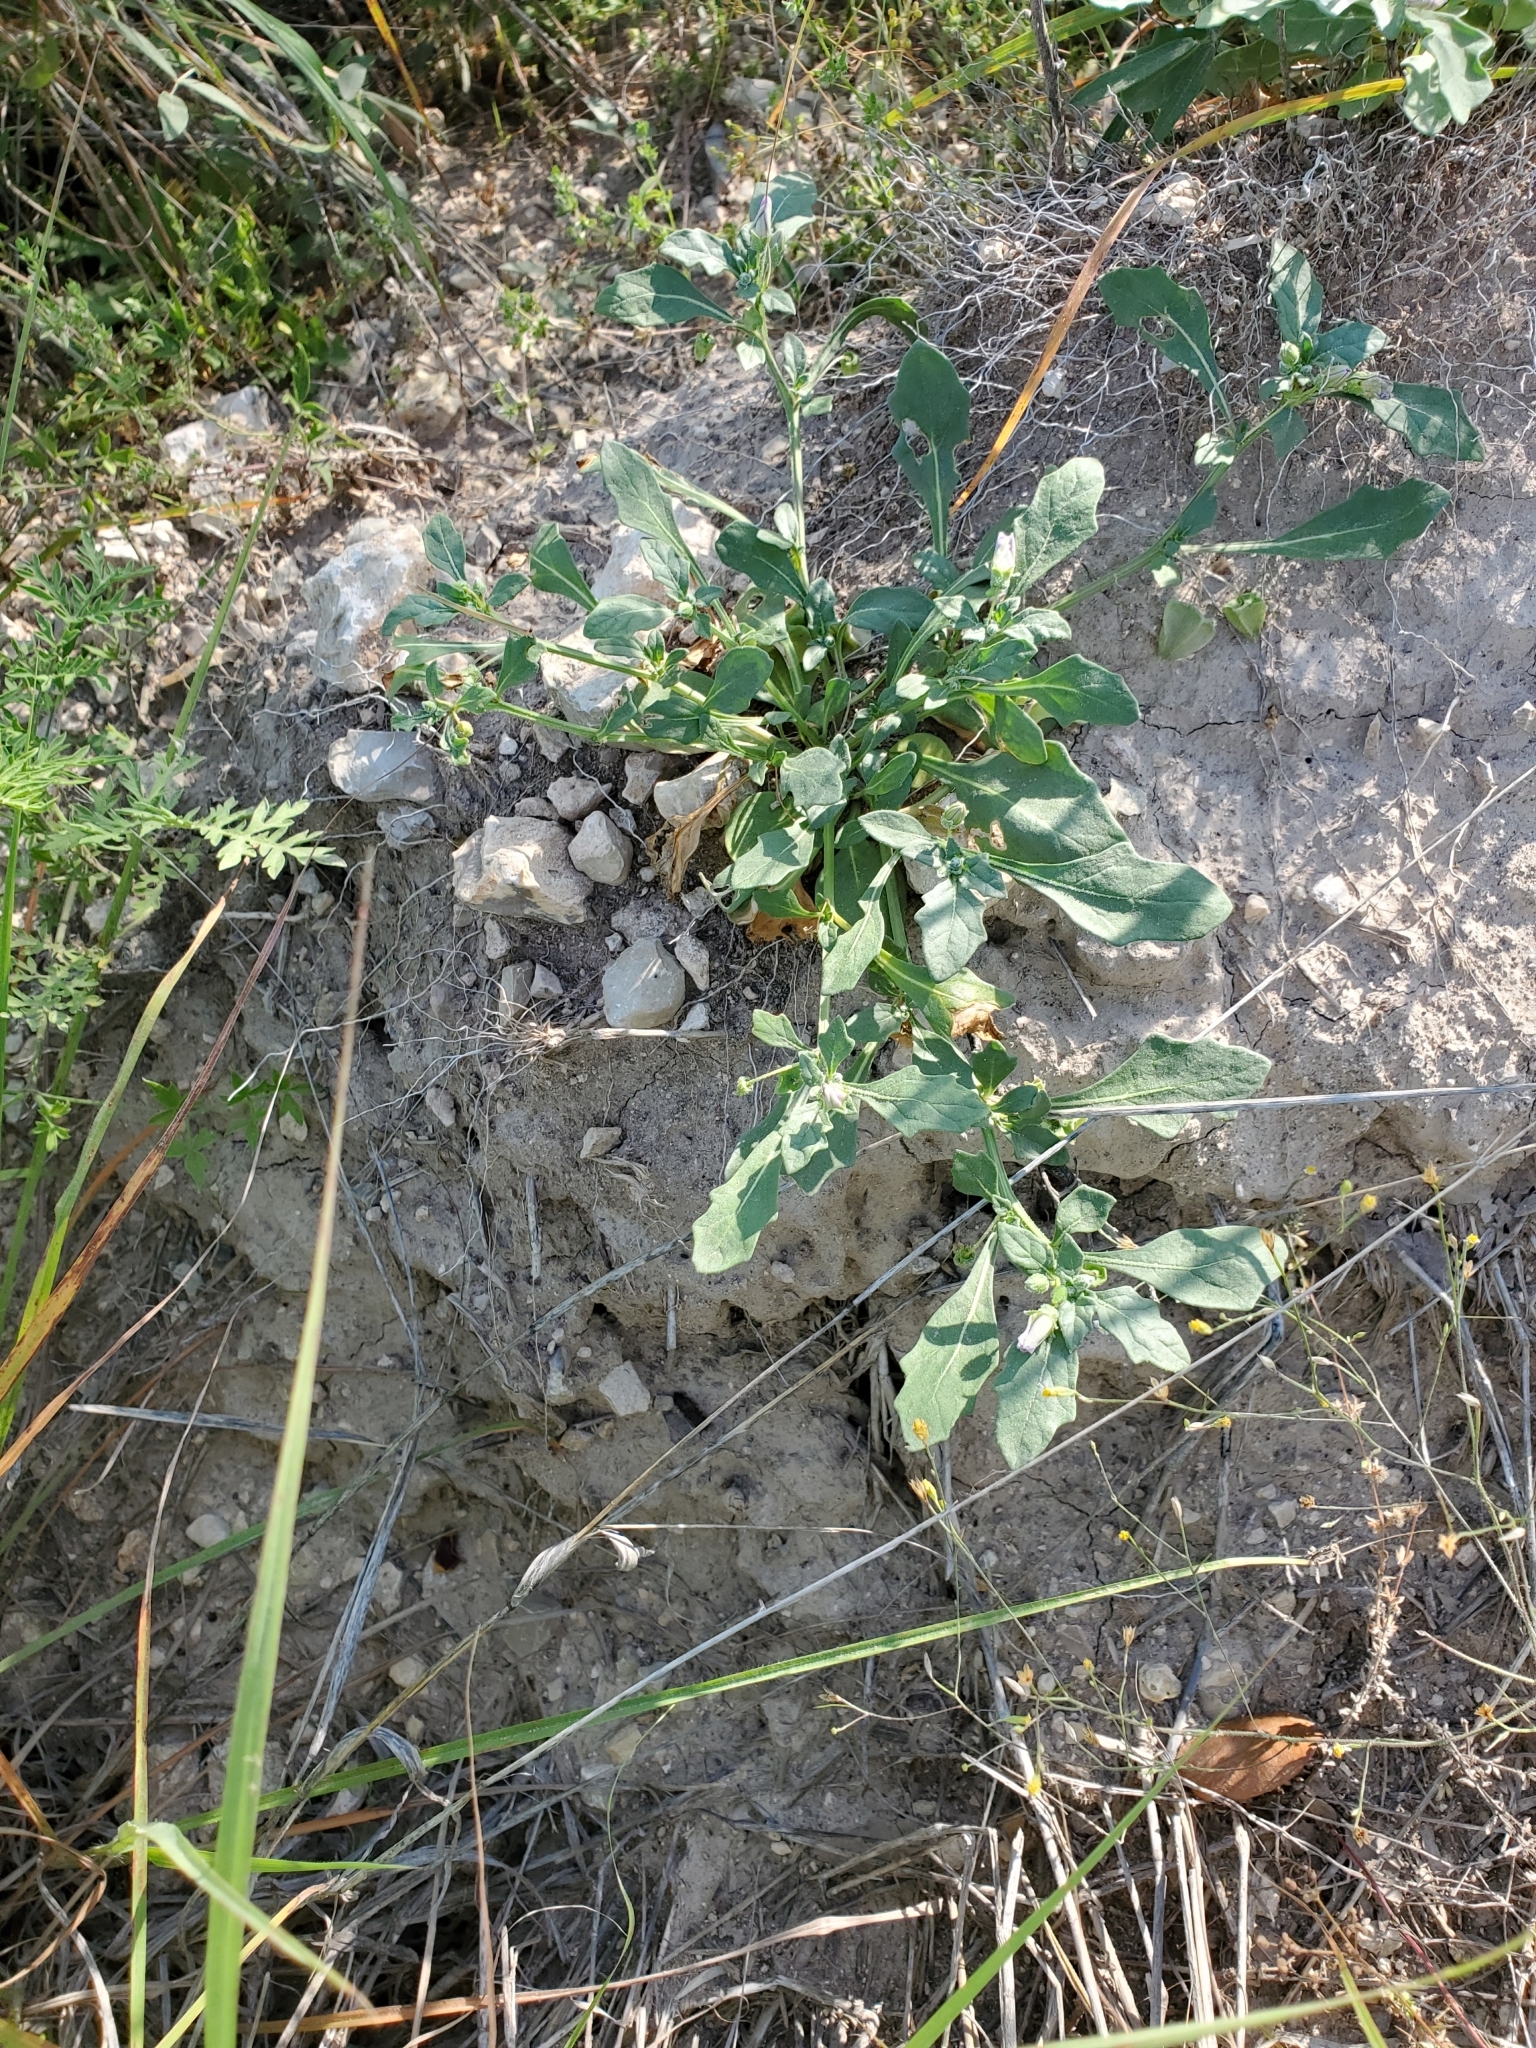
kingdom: Plantae
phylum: Tracheophyta
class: Magnoliopsida
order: Solanales
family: Solanaceae
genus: Quincula
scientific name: Quincula lobata
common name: Purple-ground-cherry
